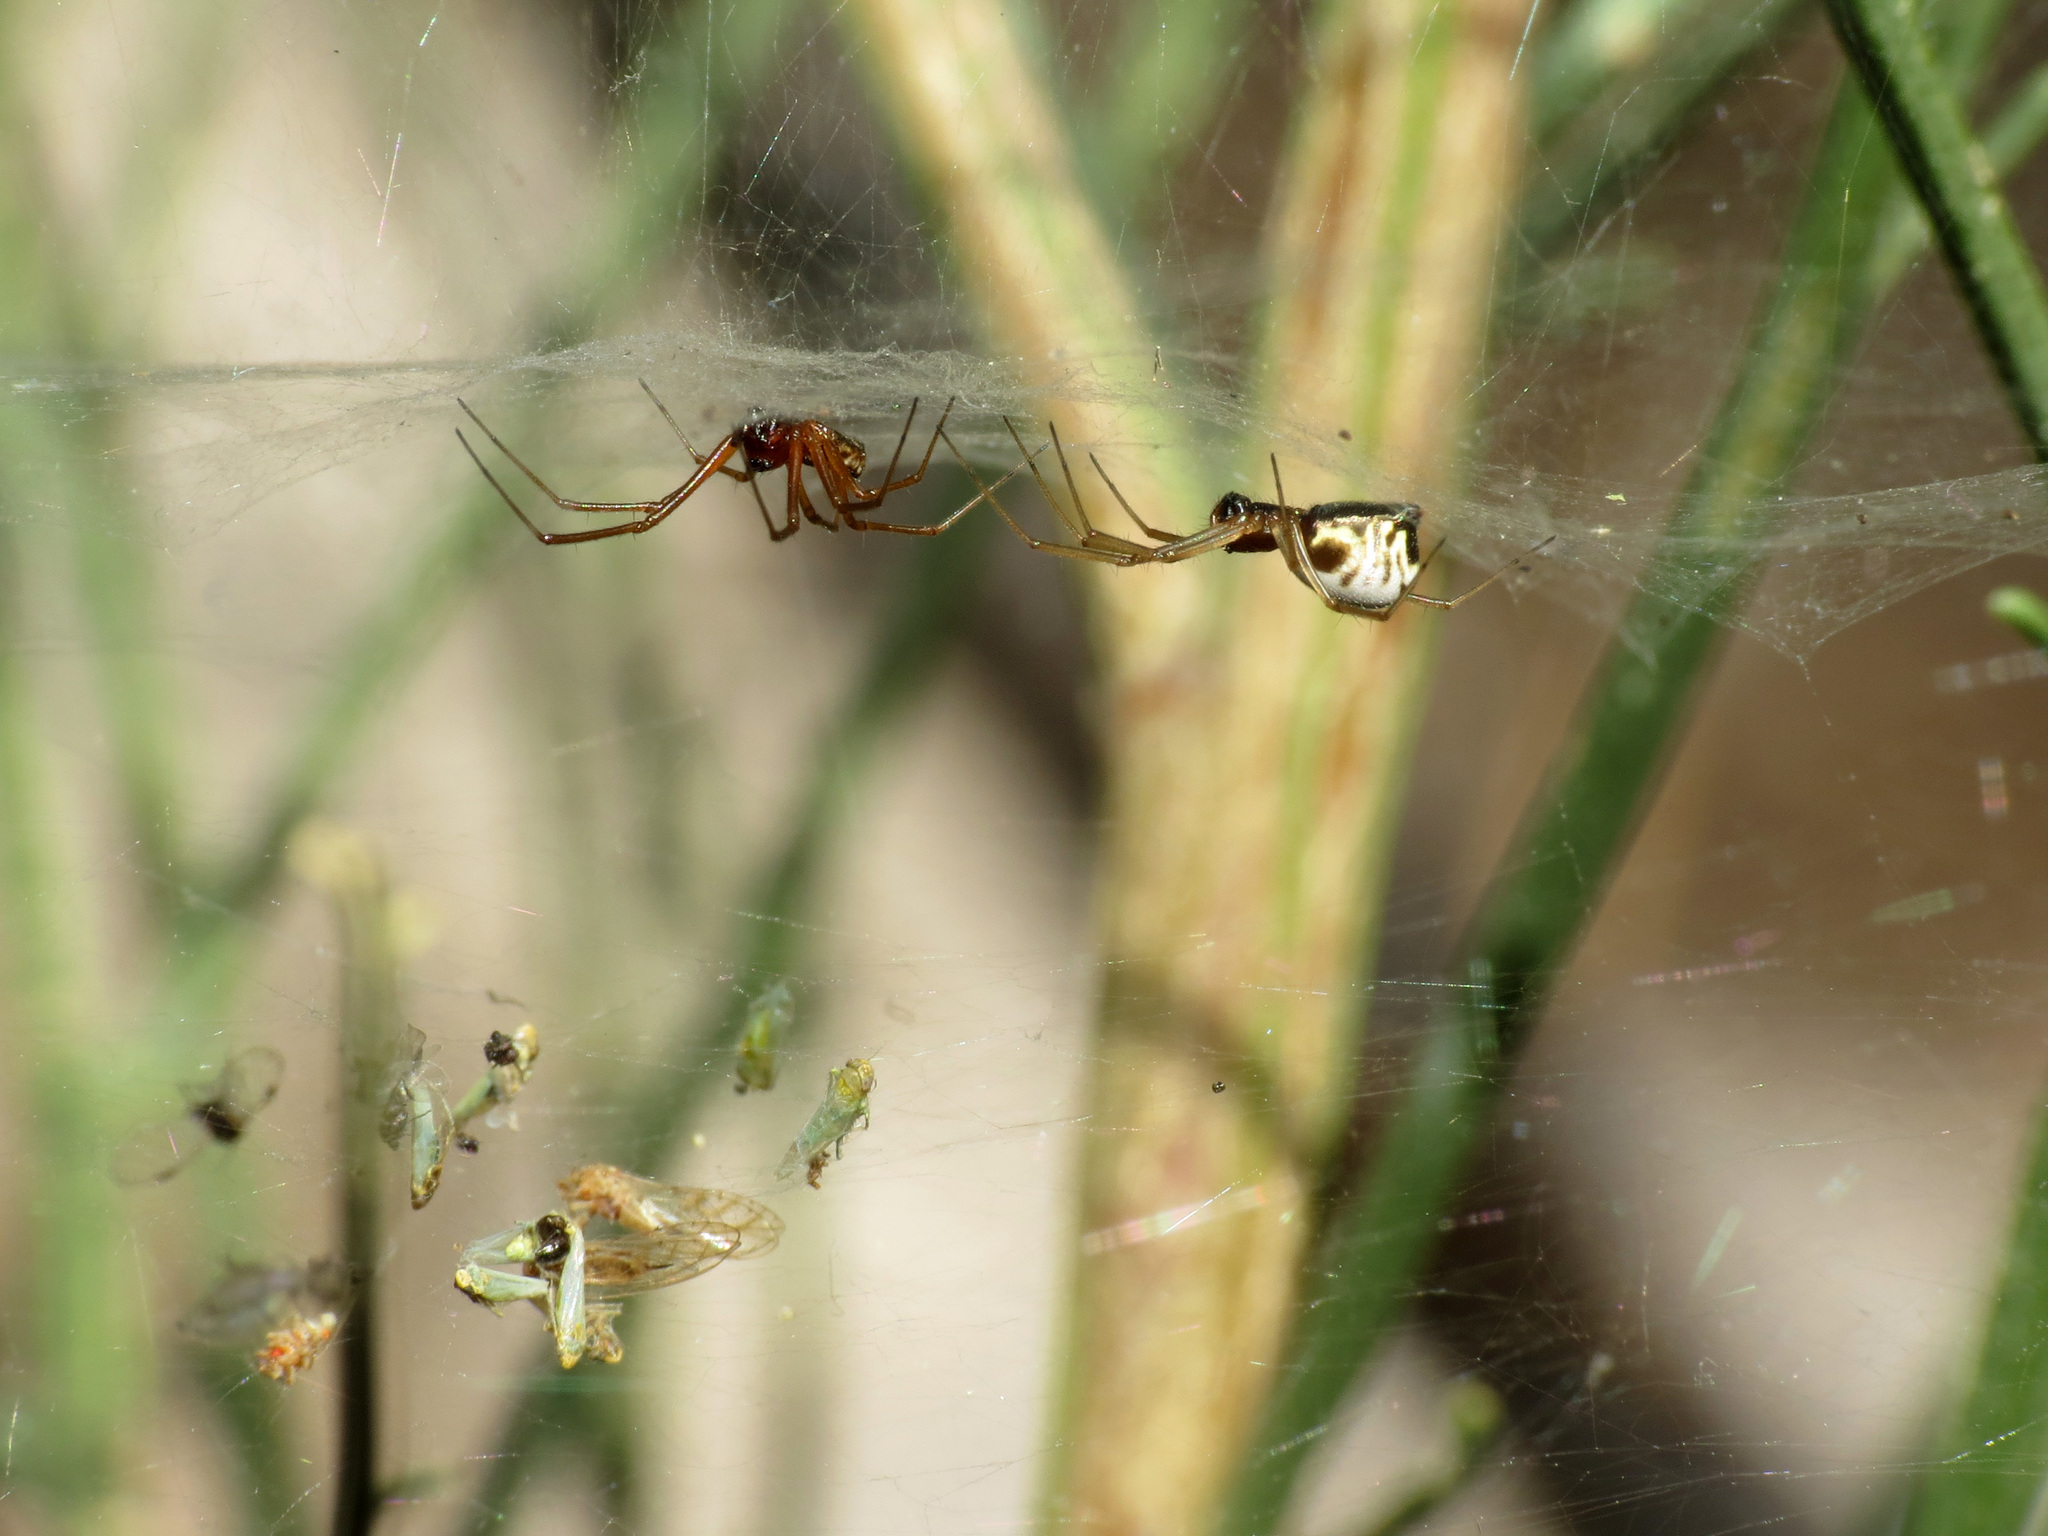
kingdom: Animalia
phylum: Arthropoda
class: Arachnida
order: Araneae
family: Linyphiidae
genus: Frontinella
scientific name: Frontinella pyramitela
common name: Bowl-and-doily spider
